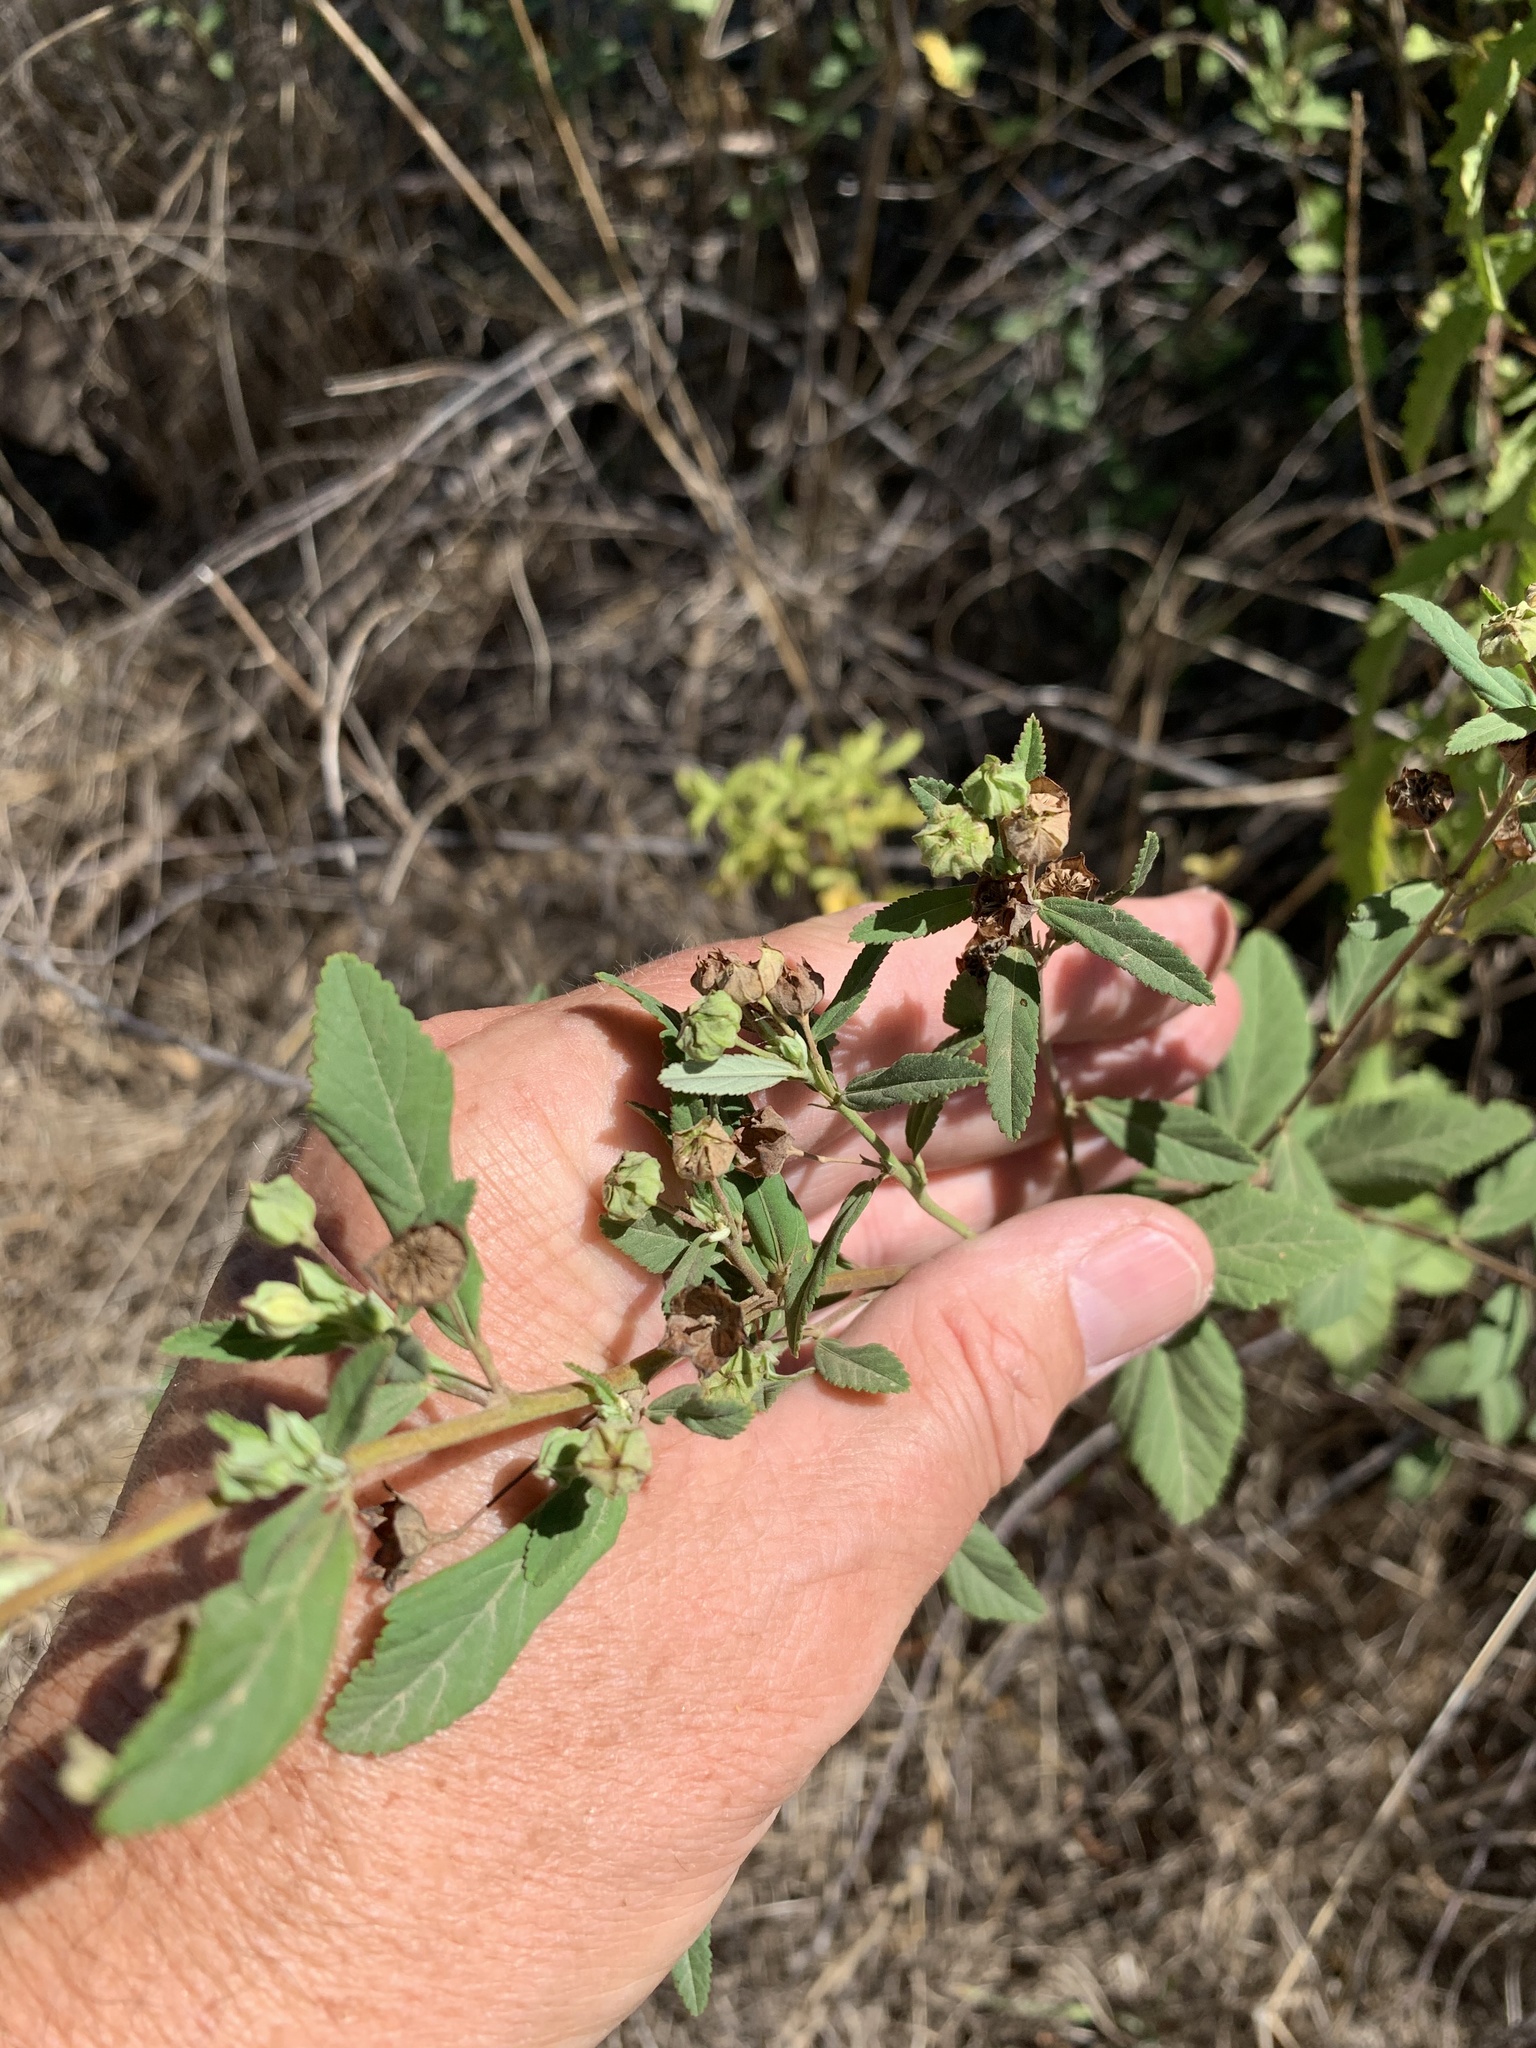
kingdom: Plantae
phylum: Tracheophyta
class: Magnoliopsida
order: Malvales
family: Malvaceae
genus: Sida
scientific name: Sida rhombifolia
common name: Queensland-hemp
